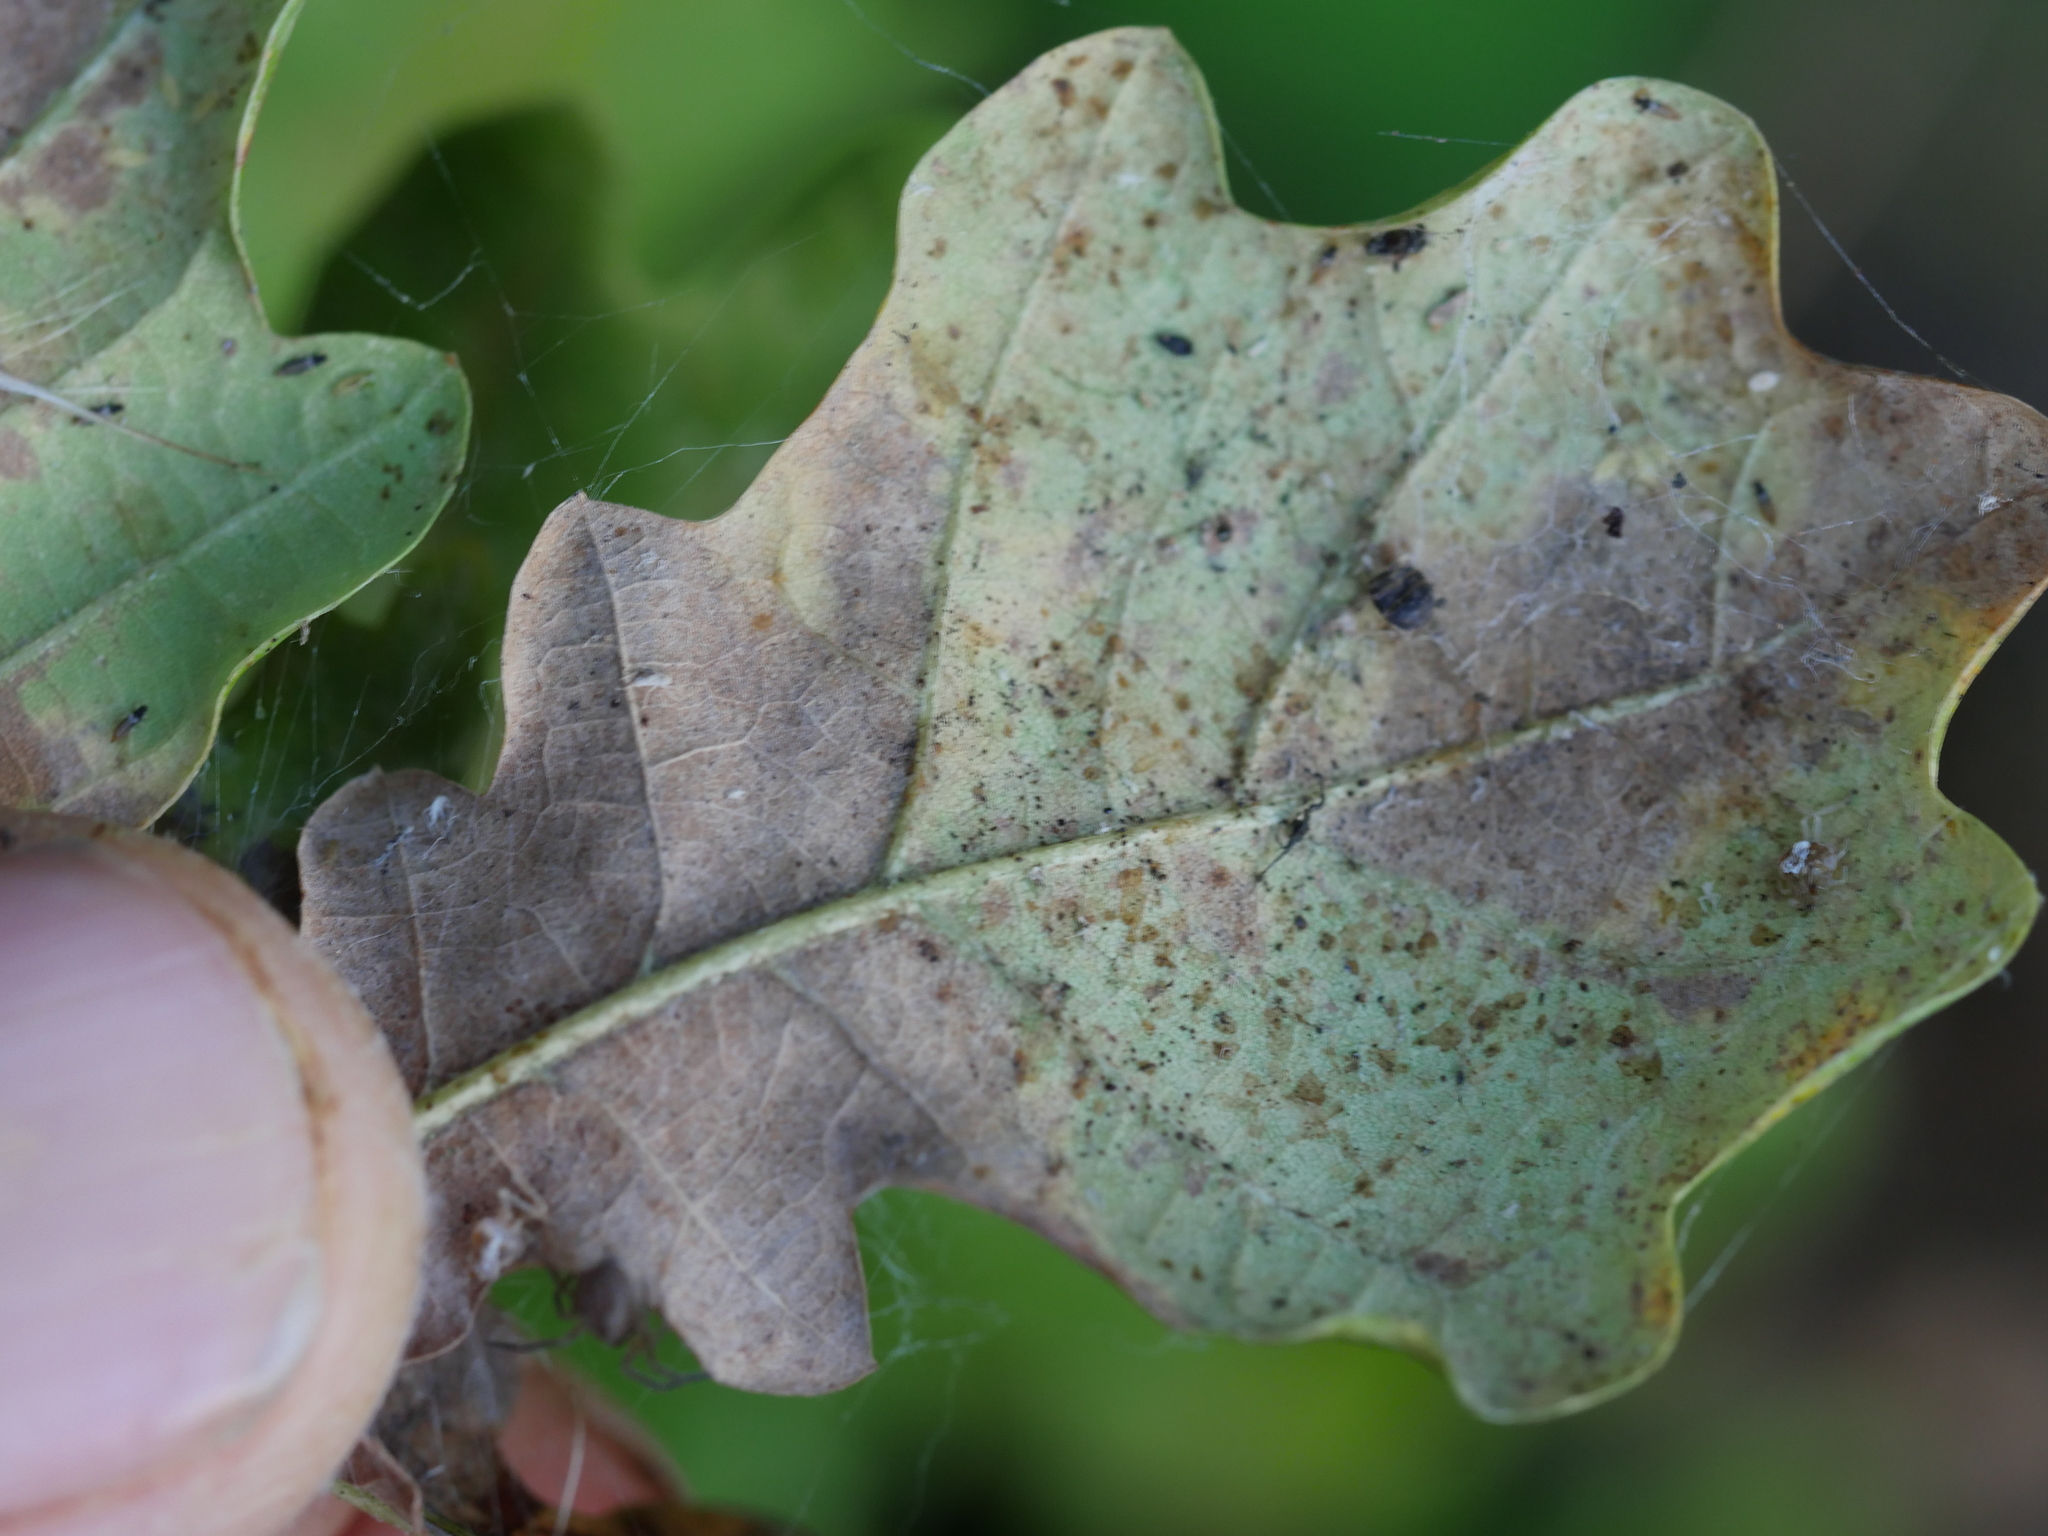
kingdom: Plantae
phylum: Tracheophyta
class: Magnoliopsida
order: Fagales
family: Fagaceae
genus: Quercus
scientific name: Quercus robur
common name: Pedunculate oak
